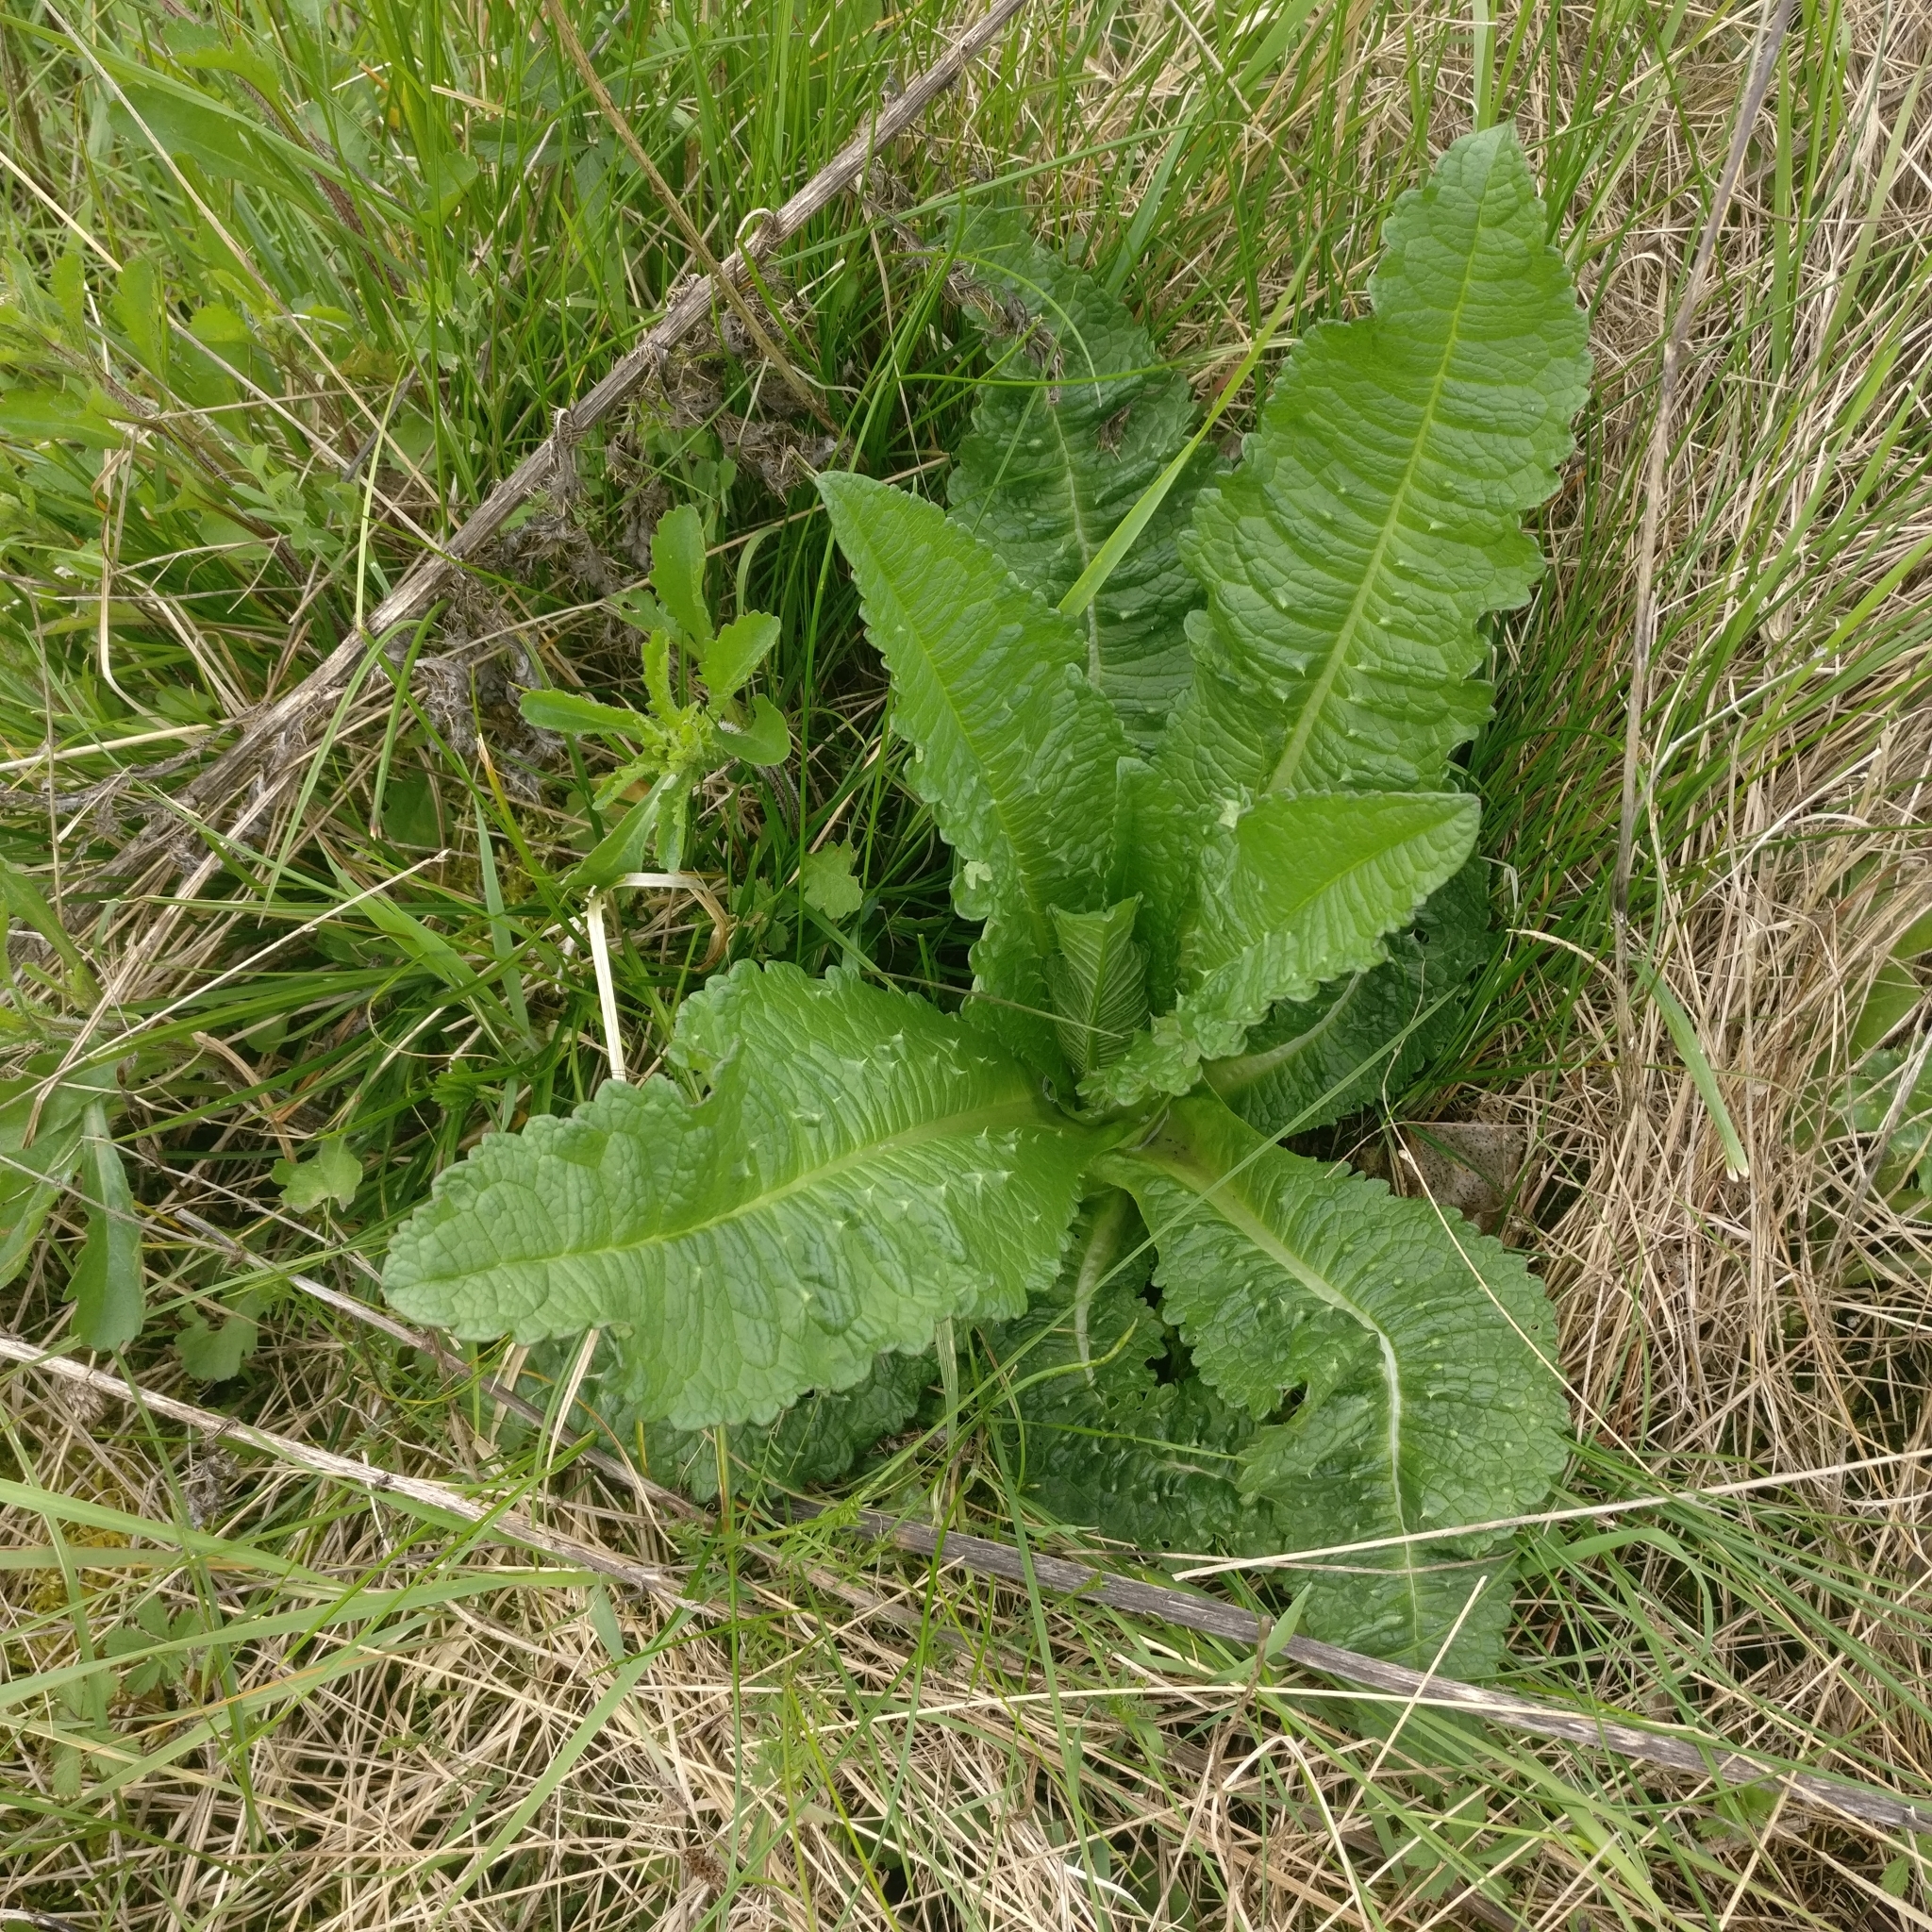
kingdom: Plantae
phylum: Tracheophyta
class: Magnoliopsida
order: Dipsacales
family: Caprifoliaceae
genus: Dipsacus
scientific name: Dipsacus fullonum
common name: Teasel
